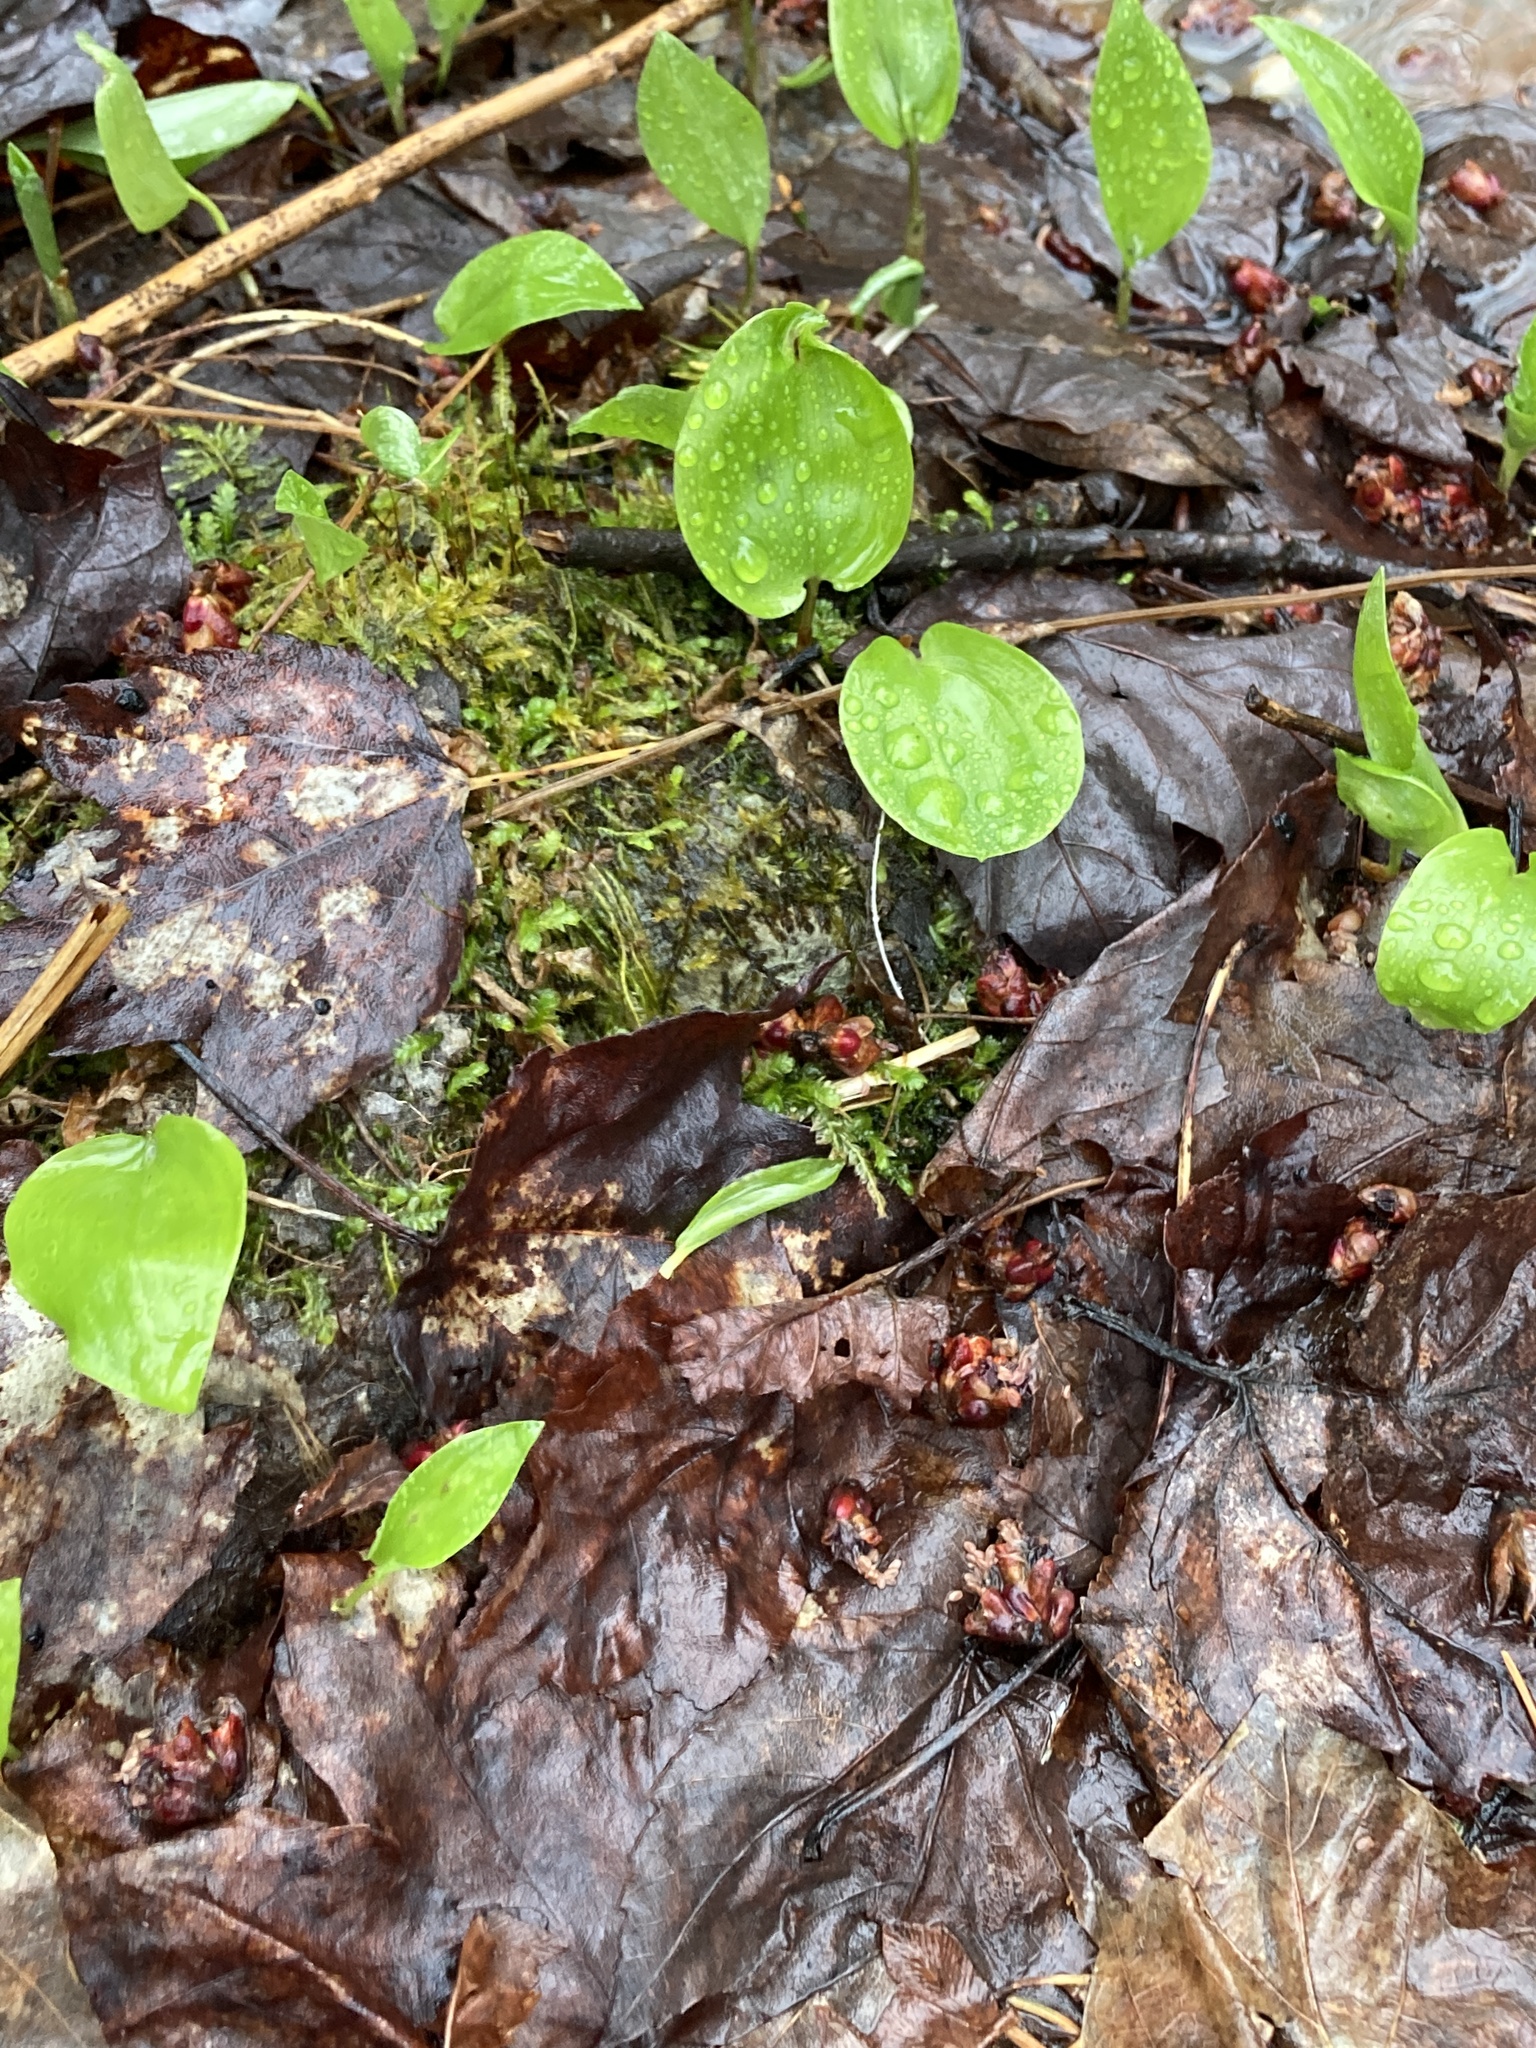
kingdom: Plantae
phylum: Tracheophyta
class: Liliopsida
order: Asparagales
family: Asparagaceae
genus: Maianthemum
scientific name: Maianthemum canadense
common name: False lily-of-the-valley
